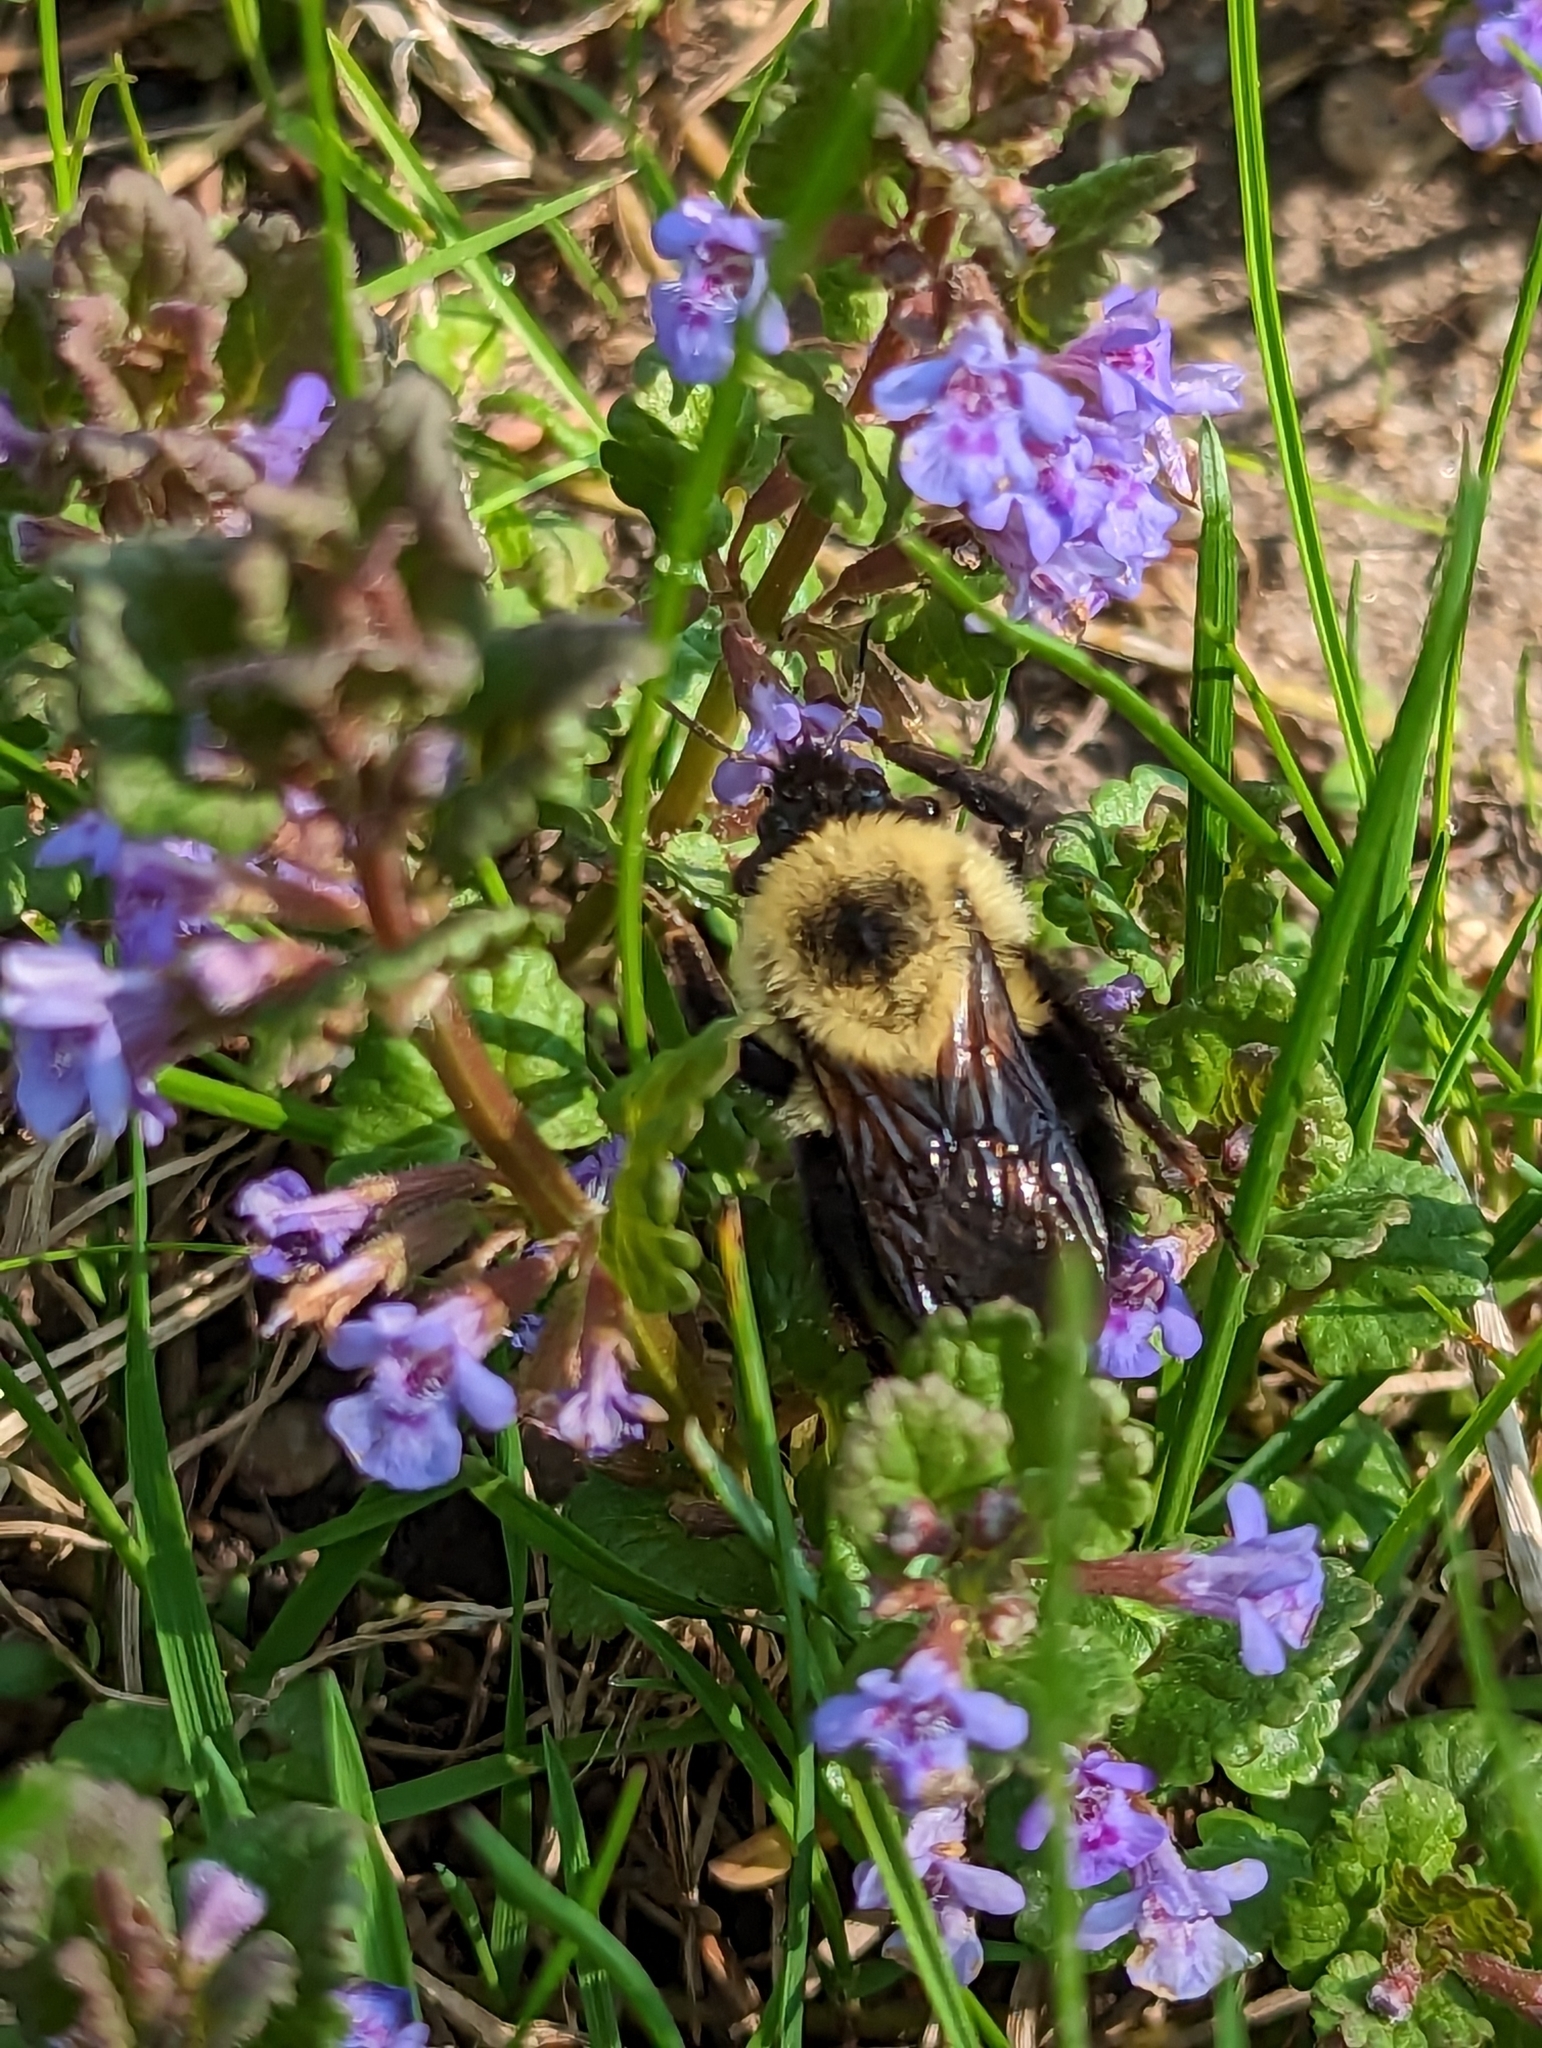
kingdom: Animalia
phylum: Arthropoda
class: Insecta
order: Hymenoptera
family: Apidae
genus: Bombus
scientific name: Bombus bimaculatus
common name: Two-spotted bumble bee
